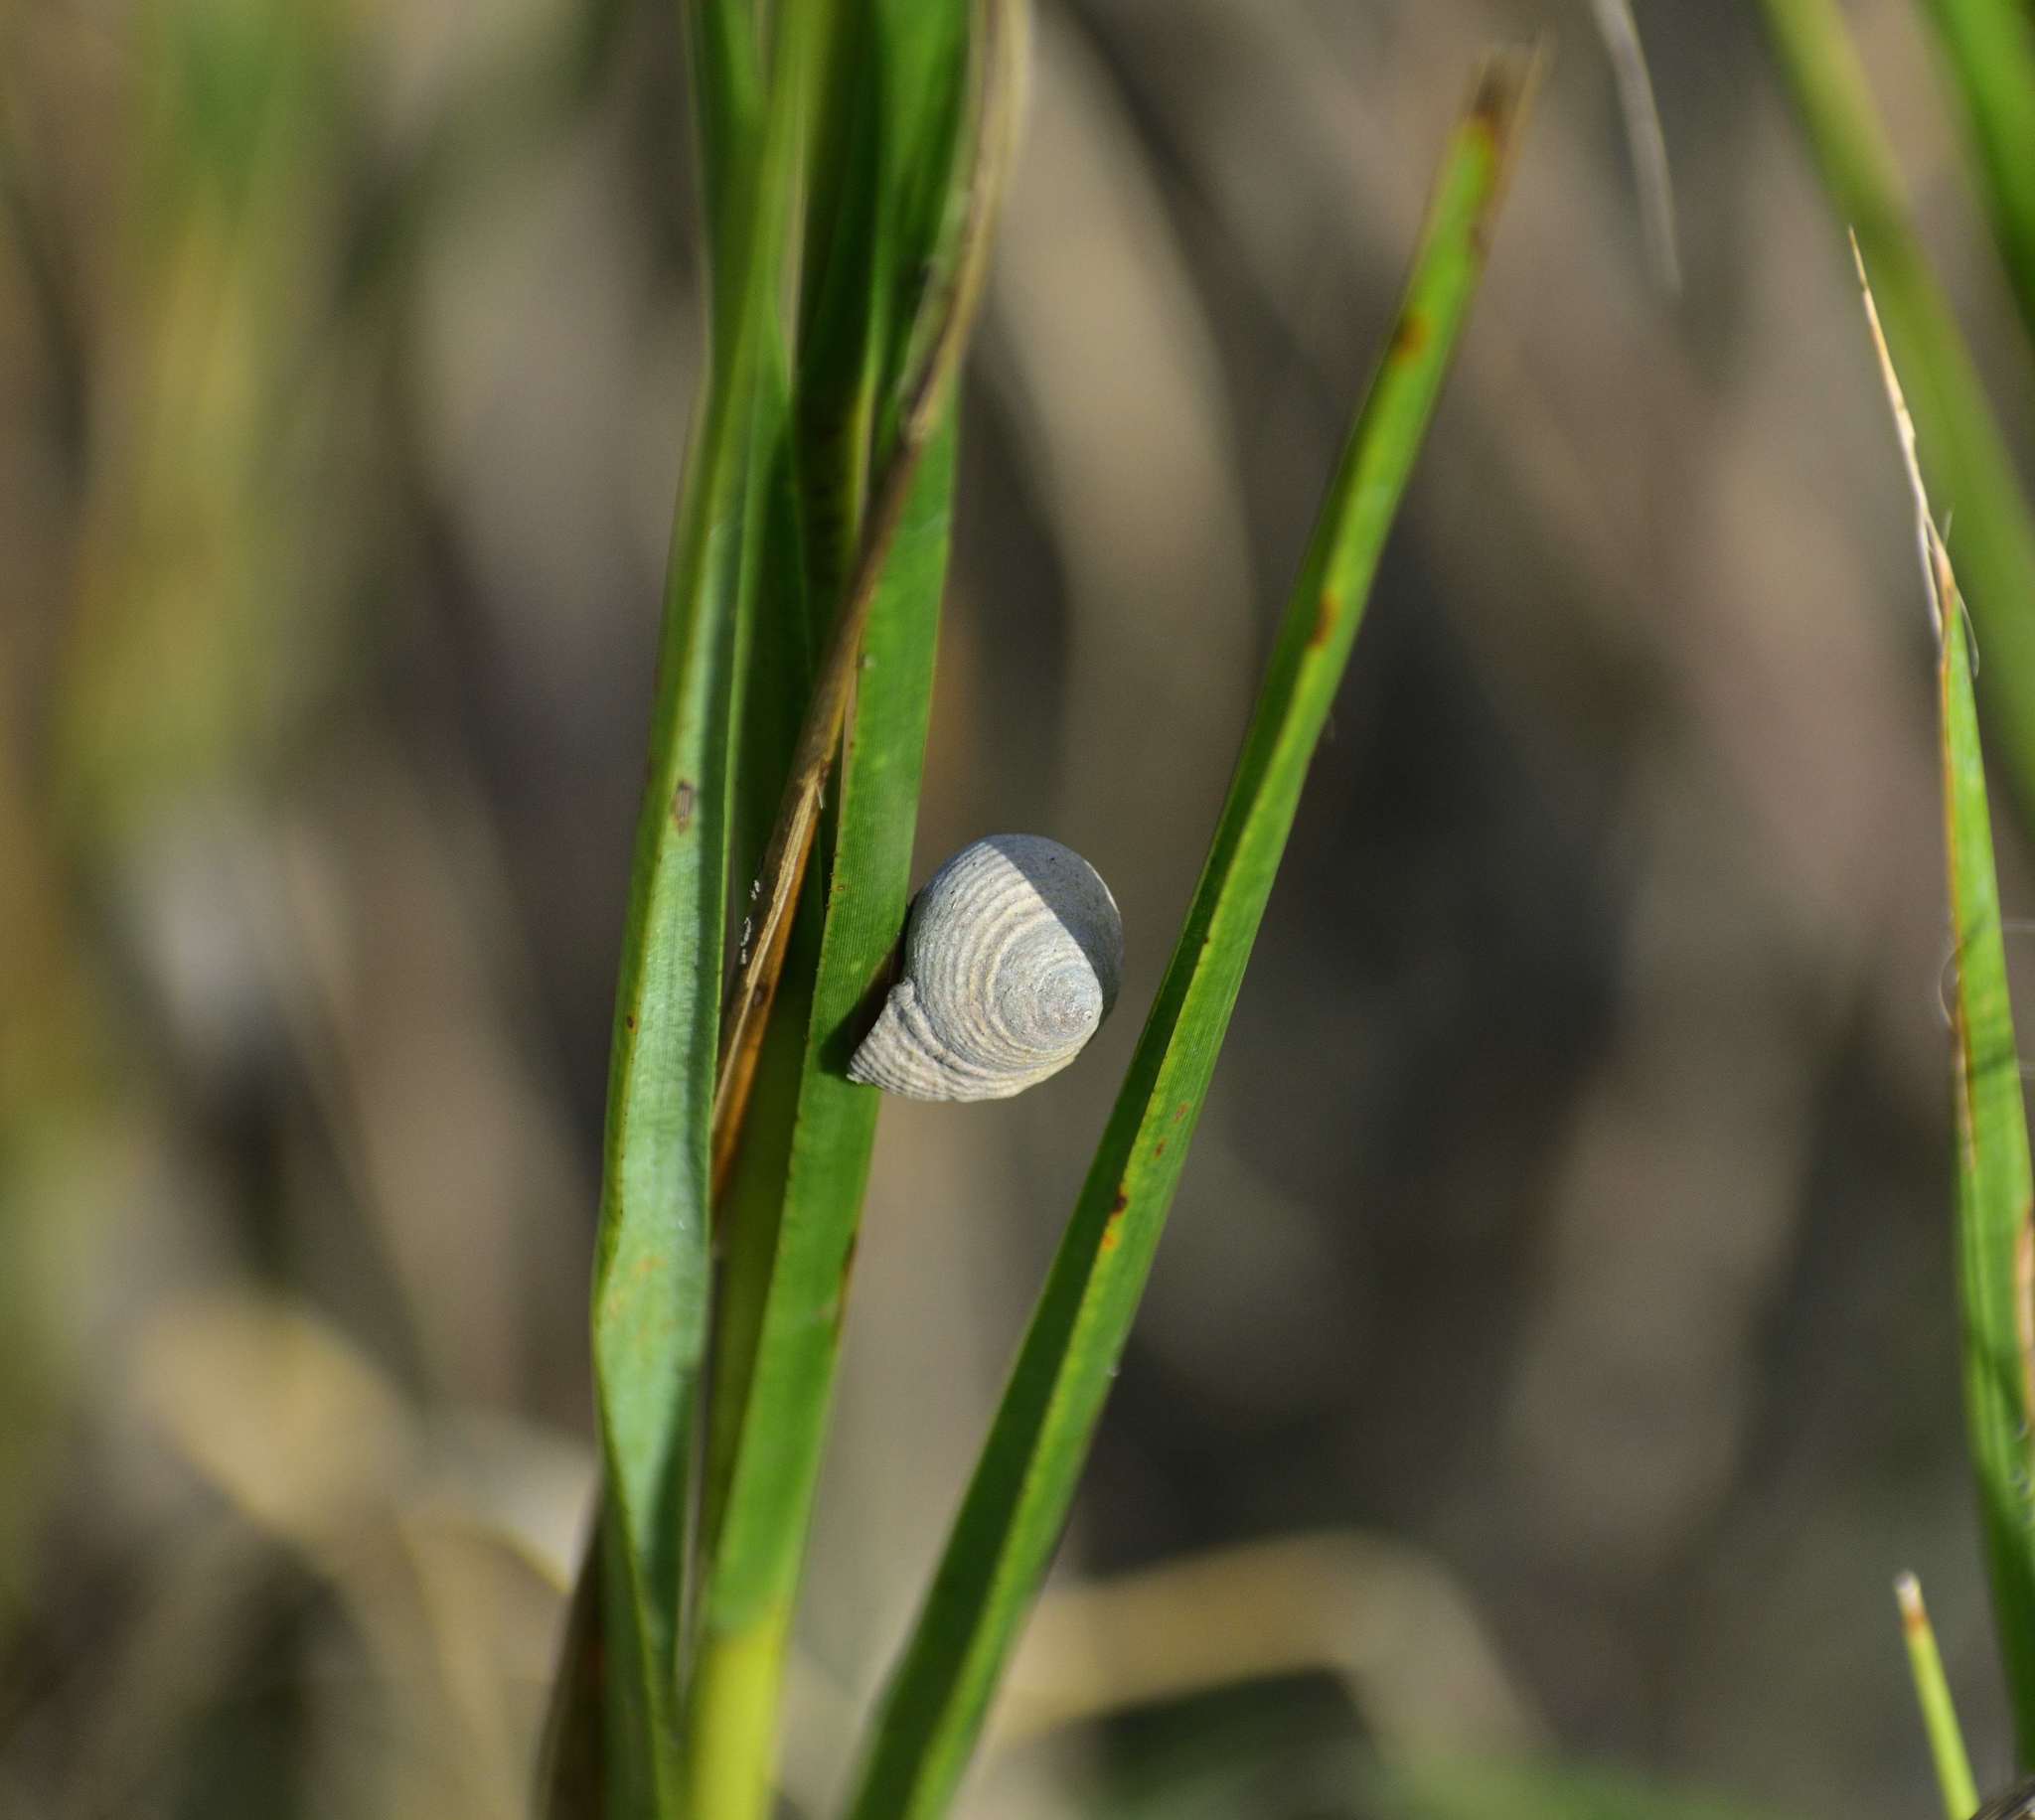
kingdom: Animalia
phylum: Mollusca
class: Gastropoda
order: Littorinimorpha
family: Littorinidae
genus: Littoraria
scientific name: Littoraria irrorata
